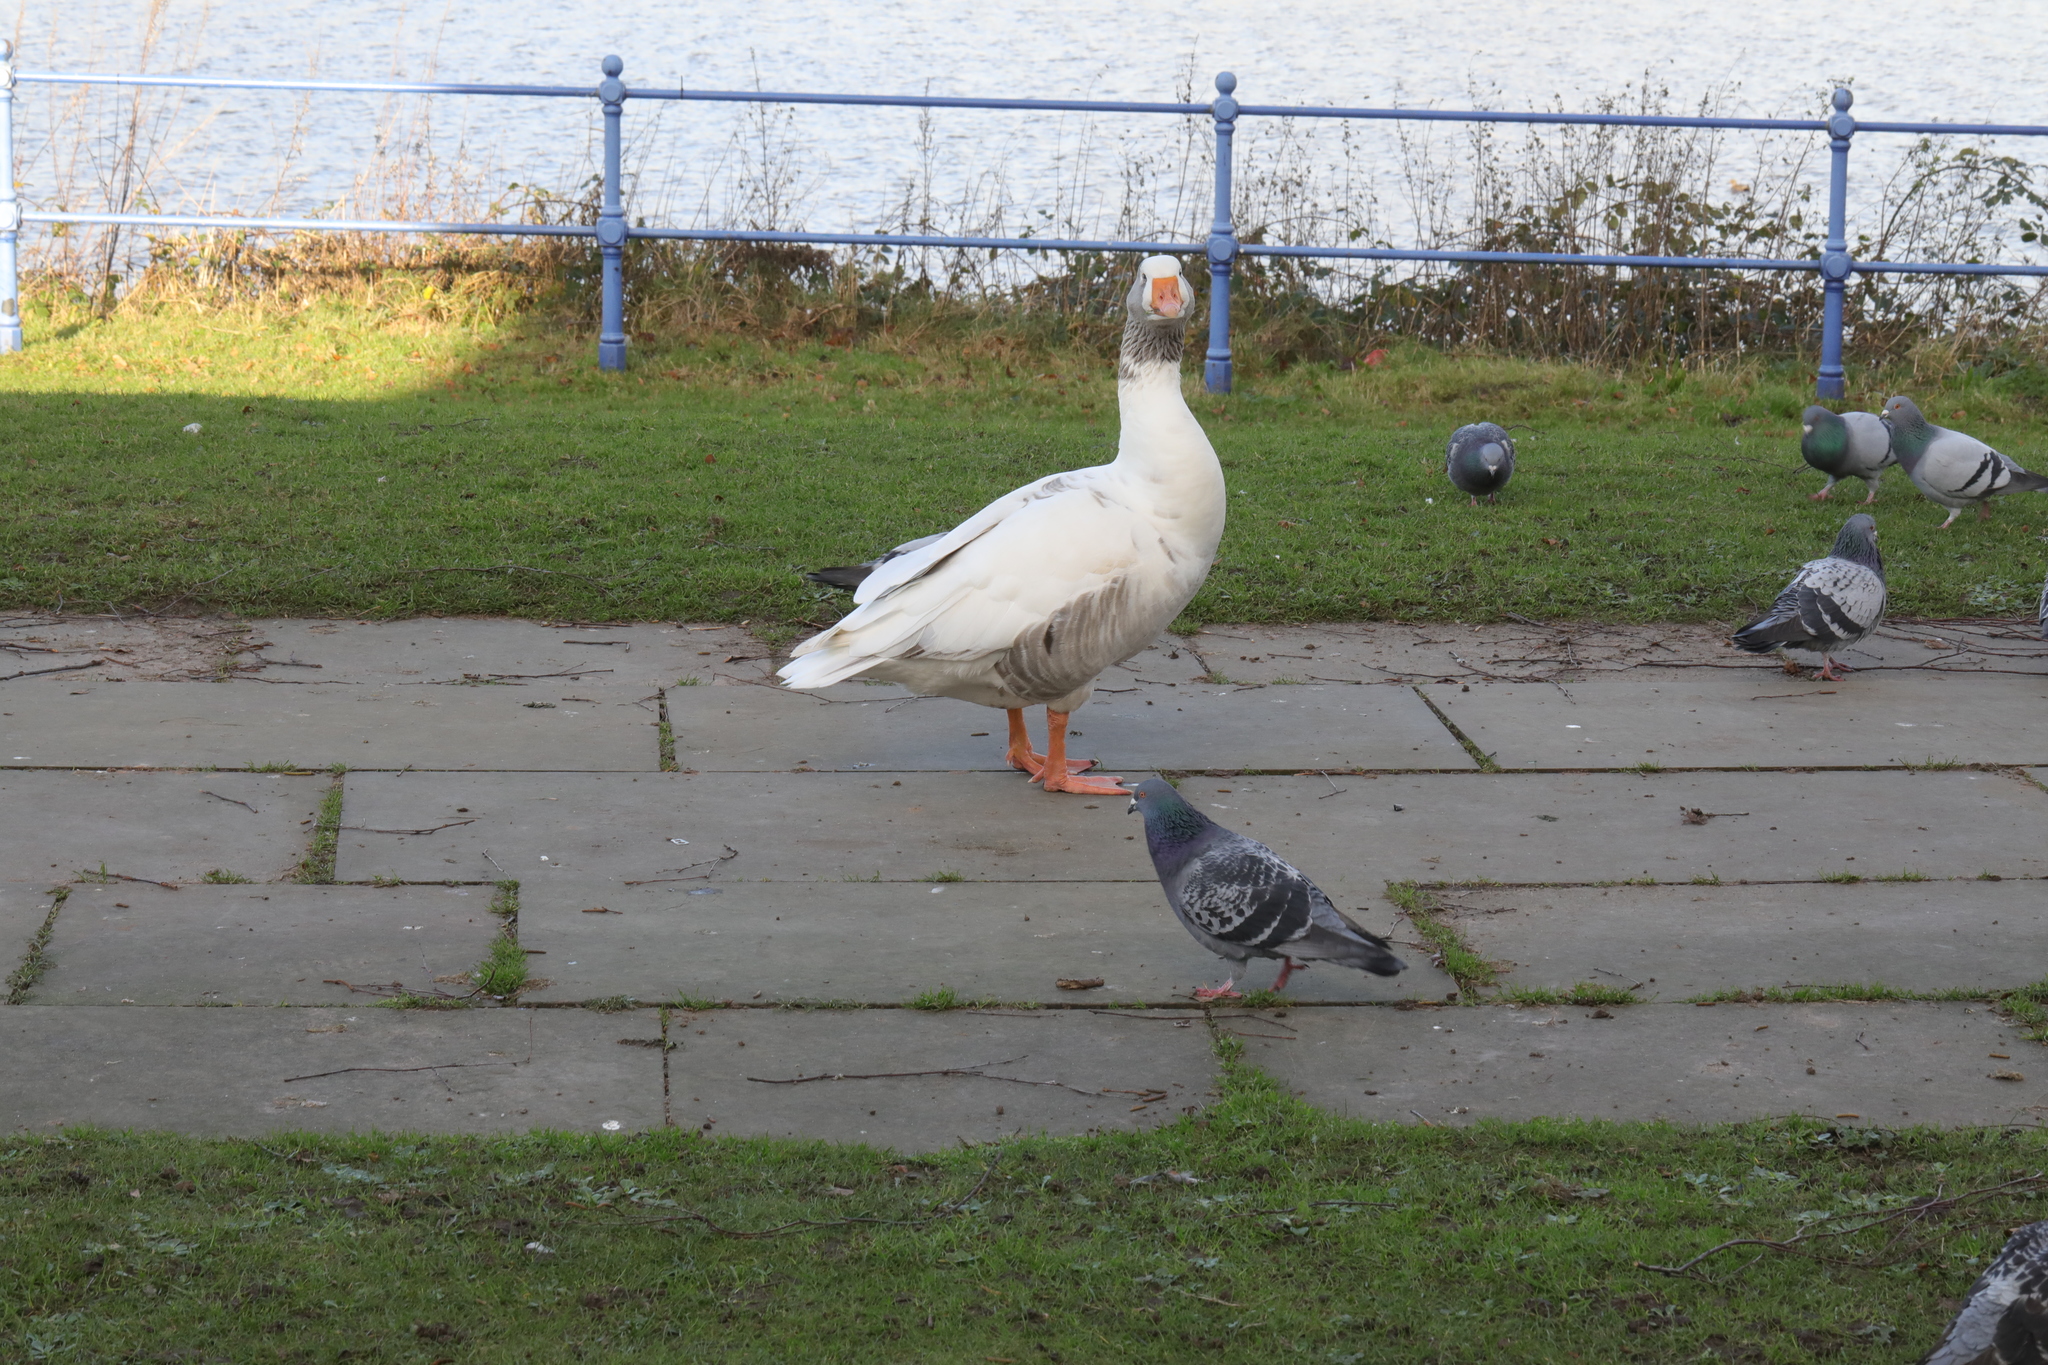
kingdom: Animalia
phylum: Chordata
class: Aves
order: Anseriformes
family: Anatidae
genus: Anser
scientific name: Anser anser
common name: Greylag goose
